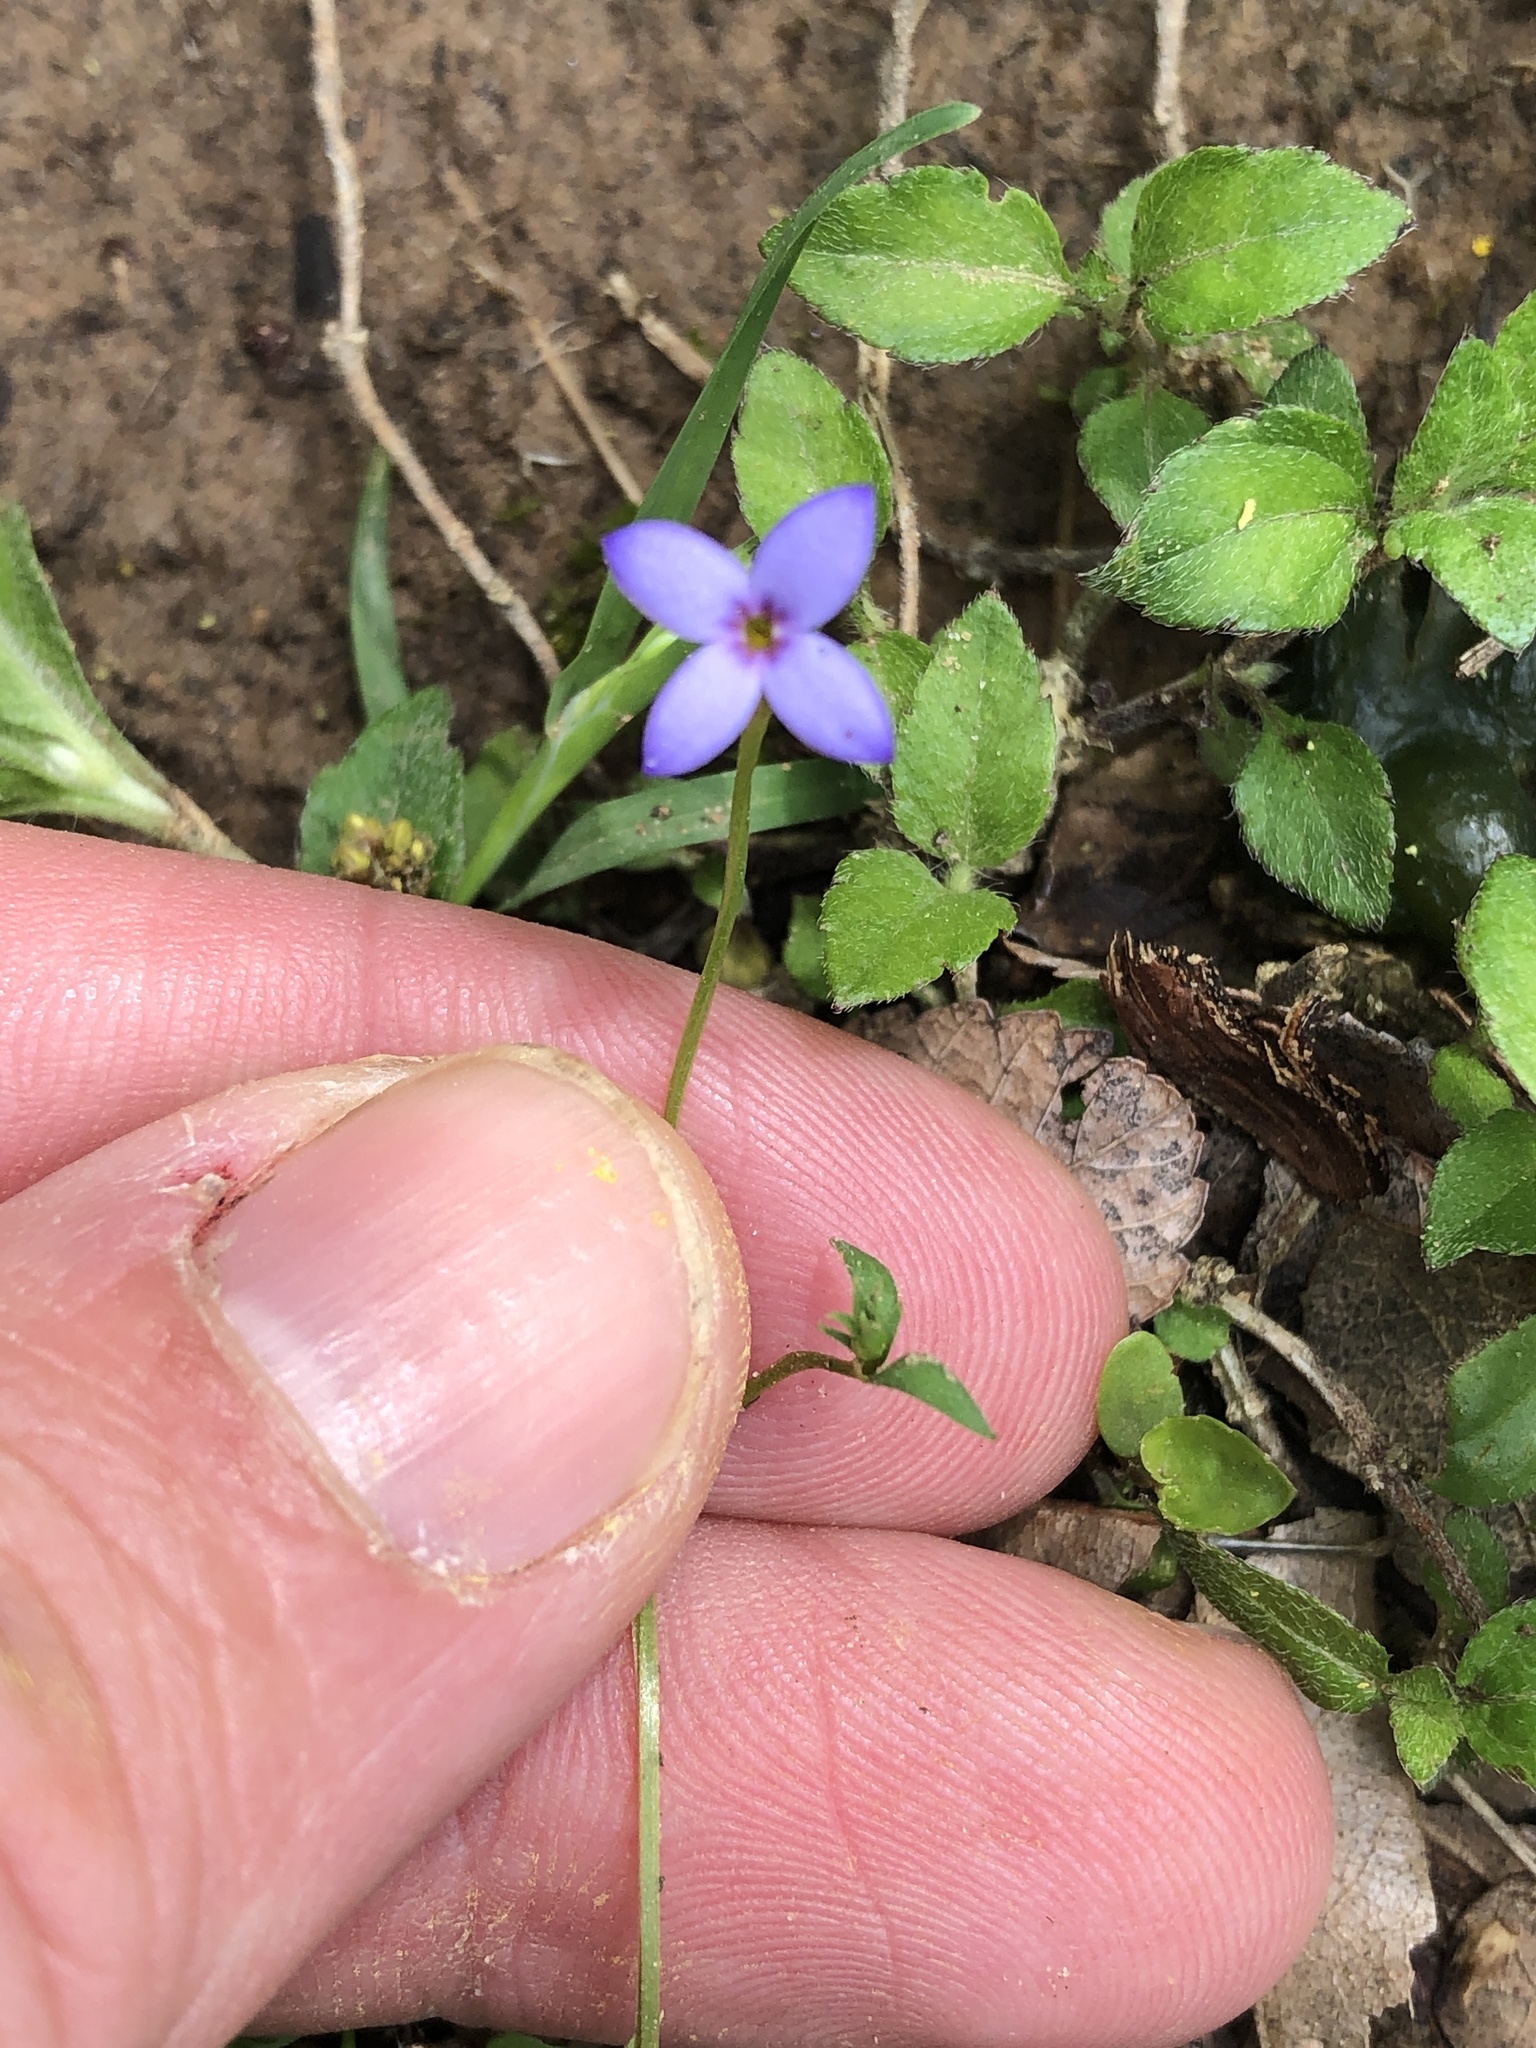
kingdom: Plantae
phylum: Tracheophyta
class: Magnoliopsida
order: Gentianales
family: Rubiaceae
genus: Houstonia
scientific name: Houstonia pusilla
